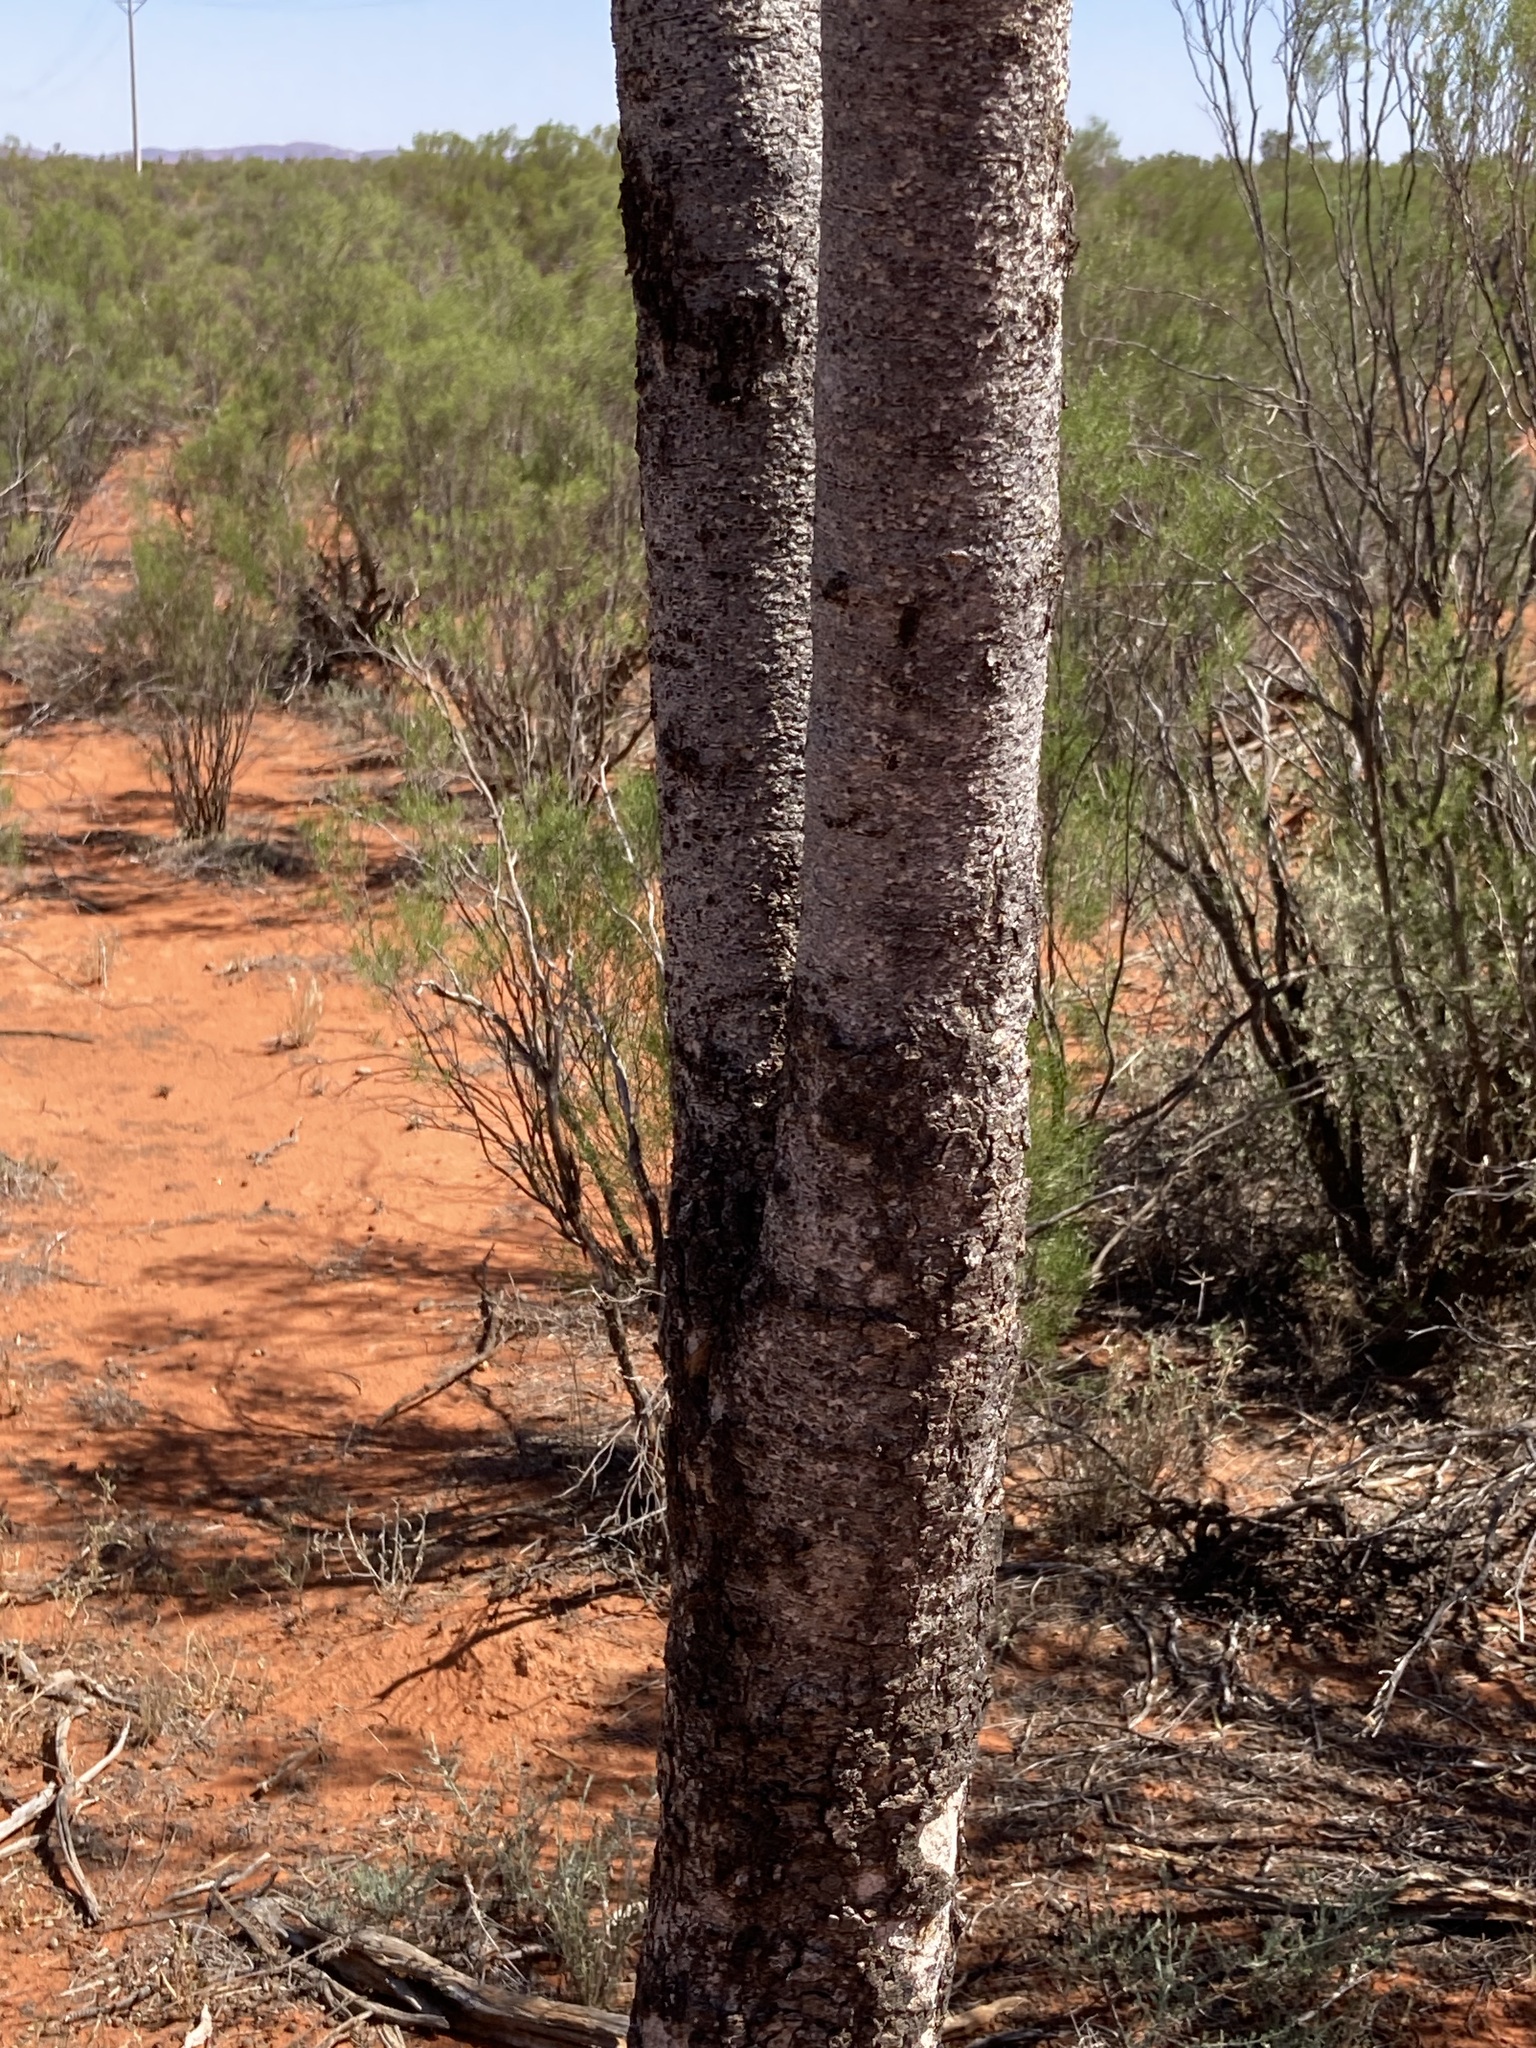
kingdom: Plantae
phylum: Tracheophyta
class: Magnoliopsida
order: Apiales
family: Pittosporaceae
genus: Pittosporum
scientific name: Pittosporum angustifolium
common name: Weeping pittosporum
